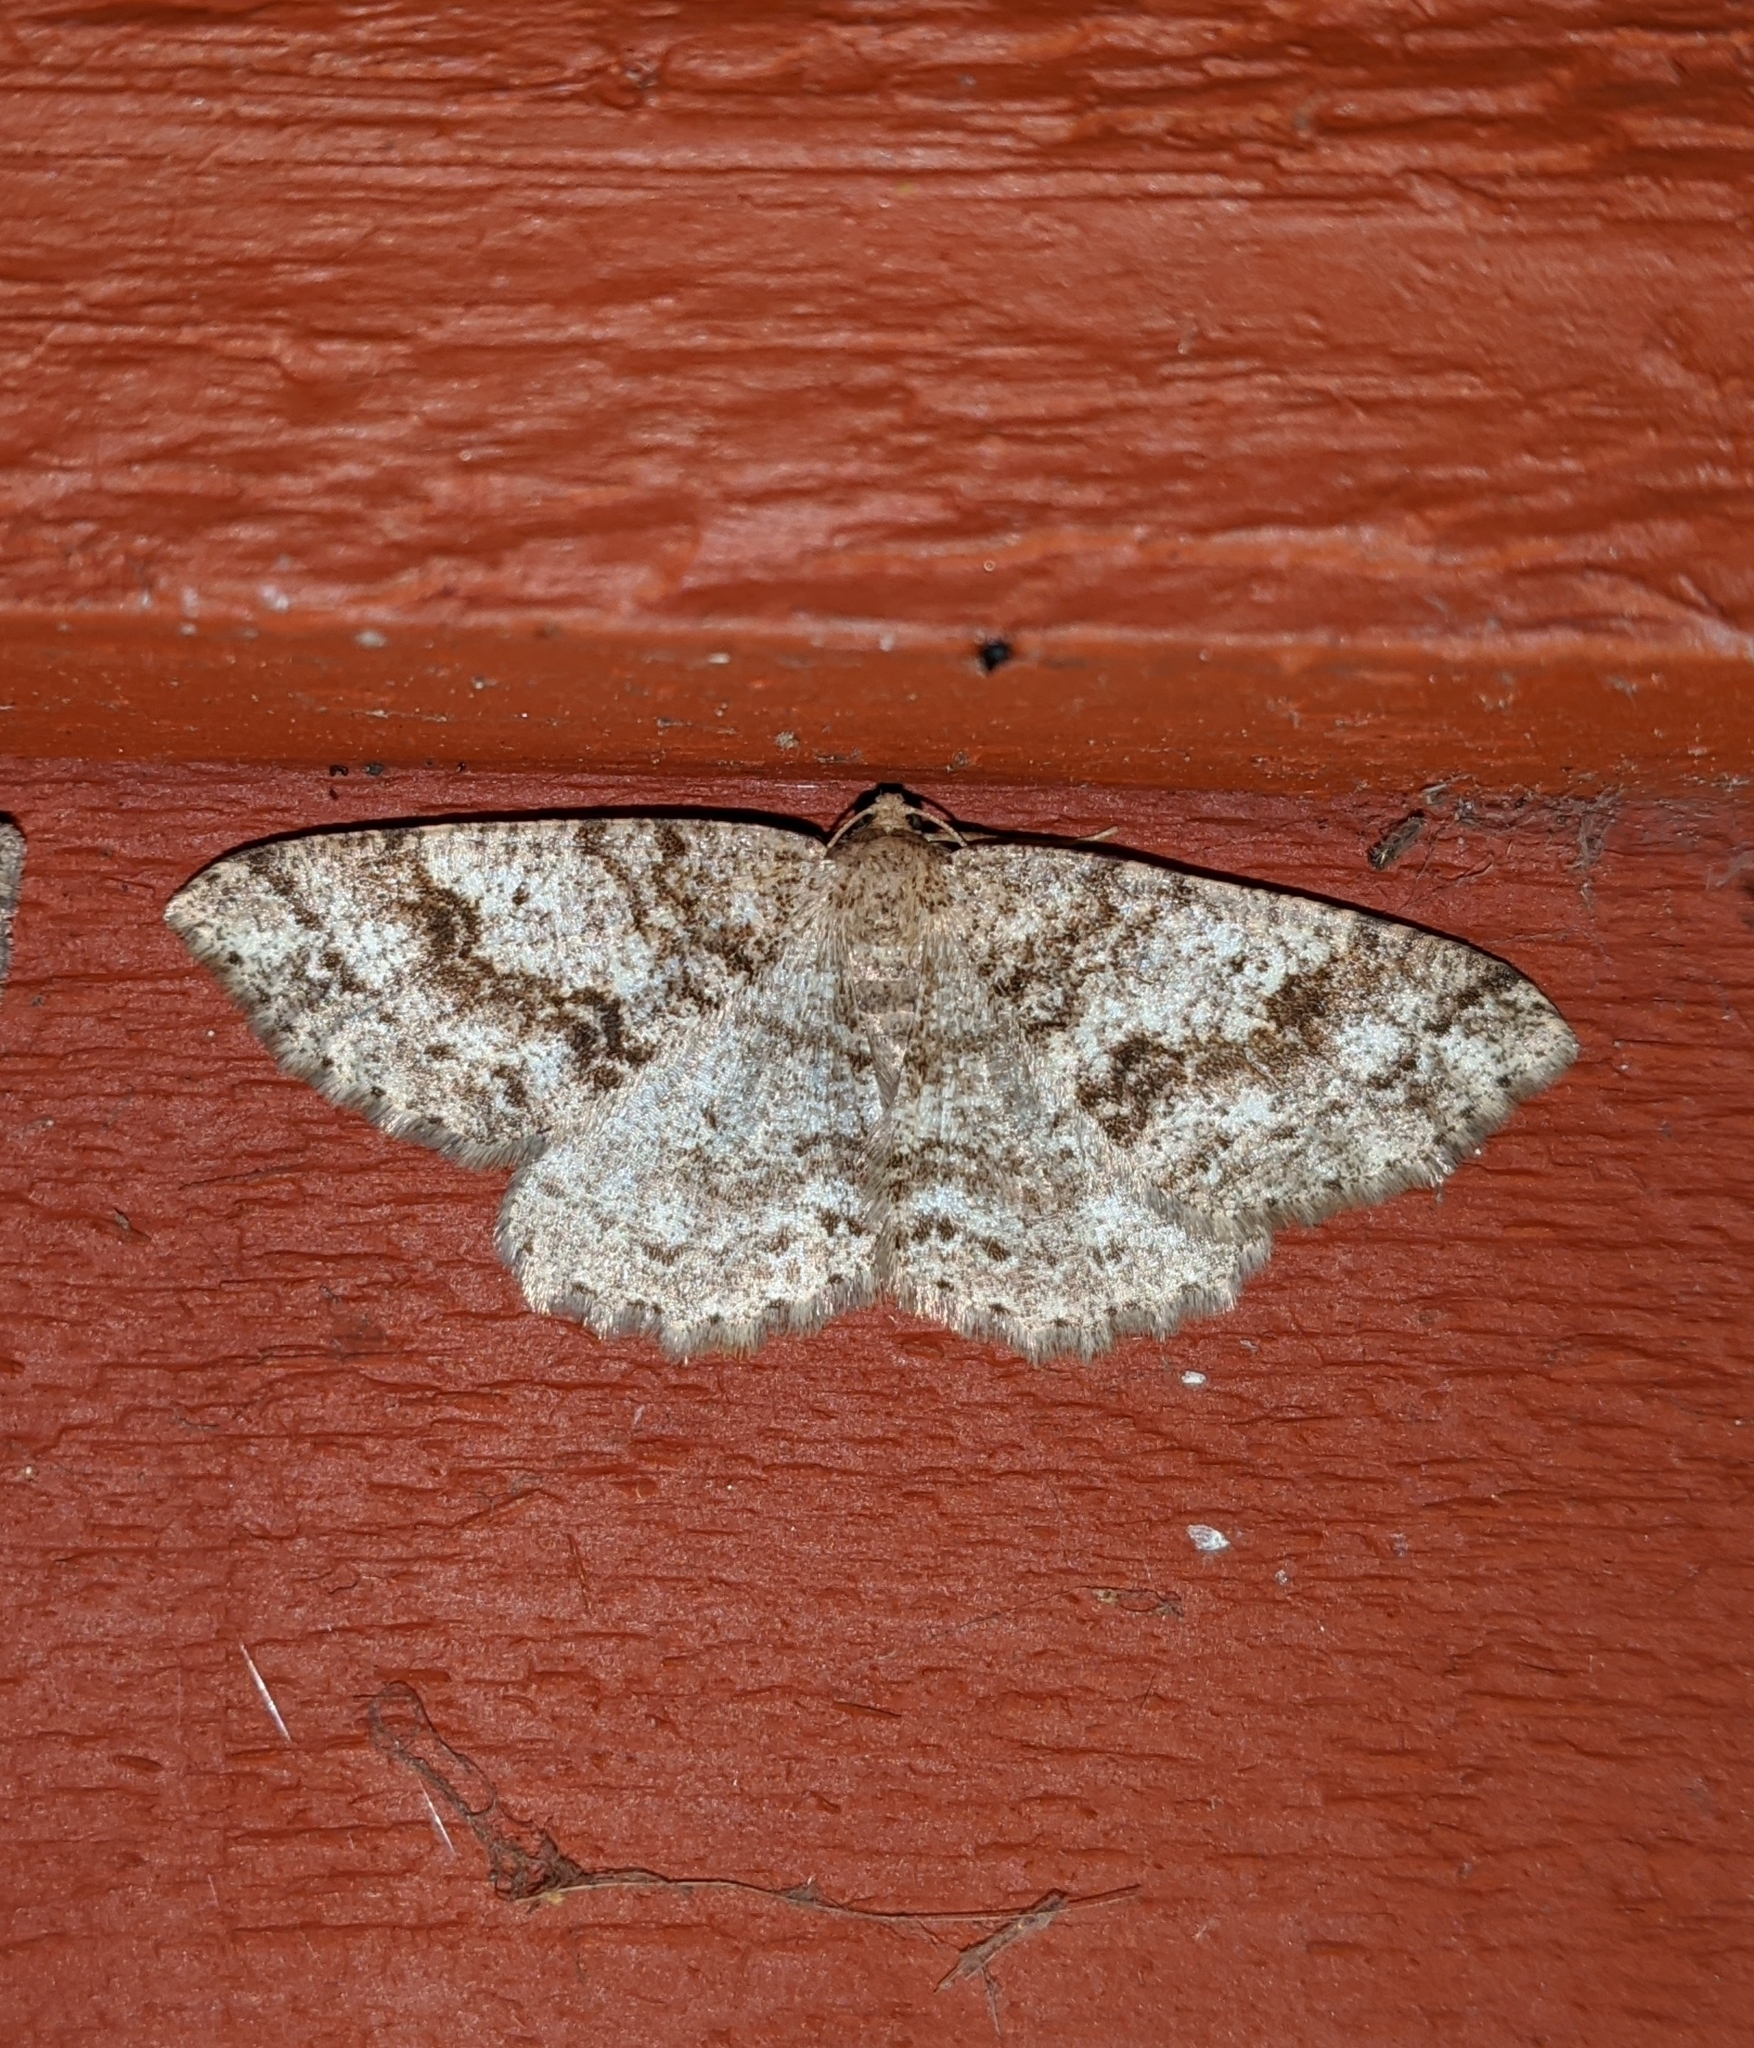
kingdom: Animalia
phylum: Arthropoda
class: Insecta
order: Lepidoptera
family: Geometridae
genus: Melanolophia
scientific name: Melanolophia imitata
